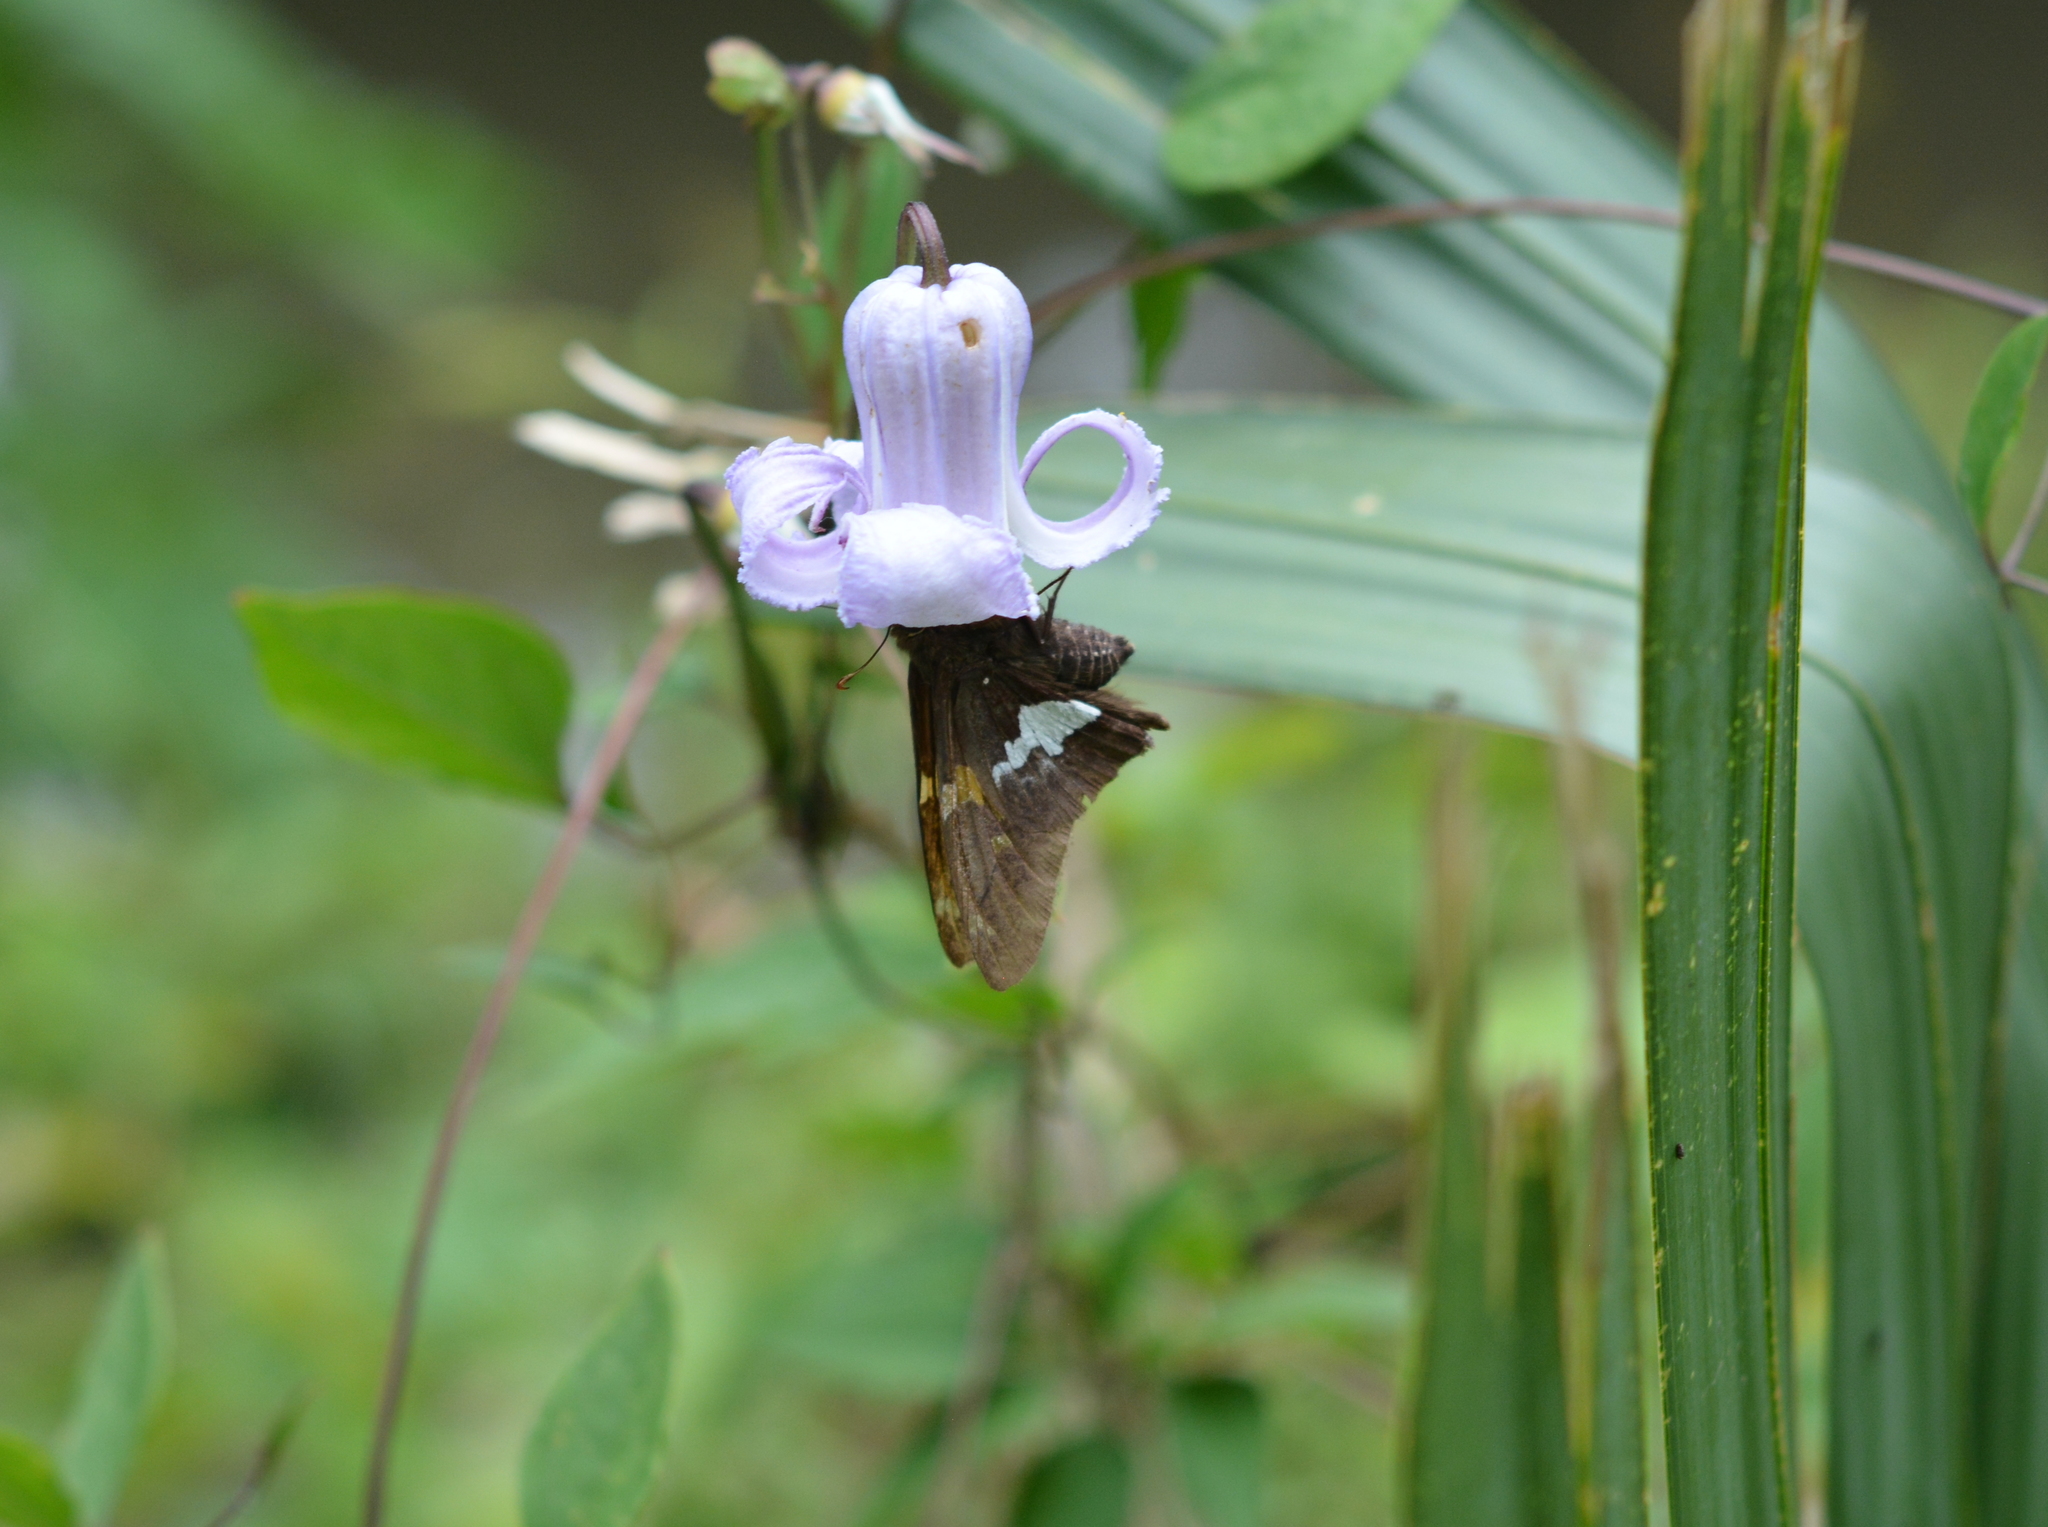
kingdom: Animalia
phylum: Arthropoda
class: Insecta
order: Lepidoptera
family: Hesperiidae
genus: Epargyreus
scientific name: Epargyreus clarus
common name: Silver-spotted skipper
